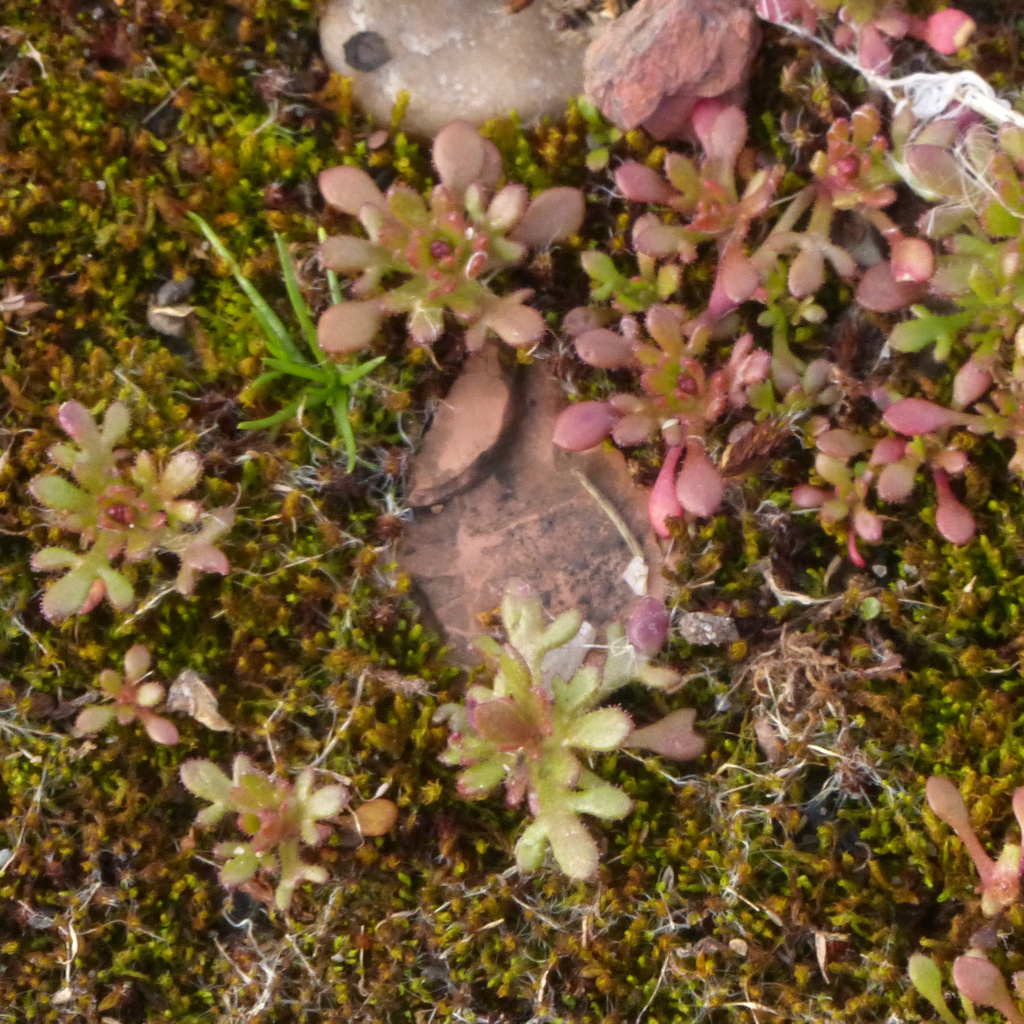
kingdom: Plantae
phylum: Tracheophyta
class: Magnoliopsida
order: Saxifragales
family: Saxifragaceae
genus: Saxifraga
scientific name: Saxifraga tridactylites
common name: Rue-leaved saxifrage
